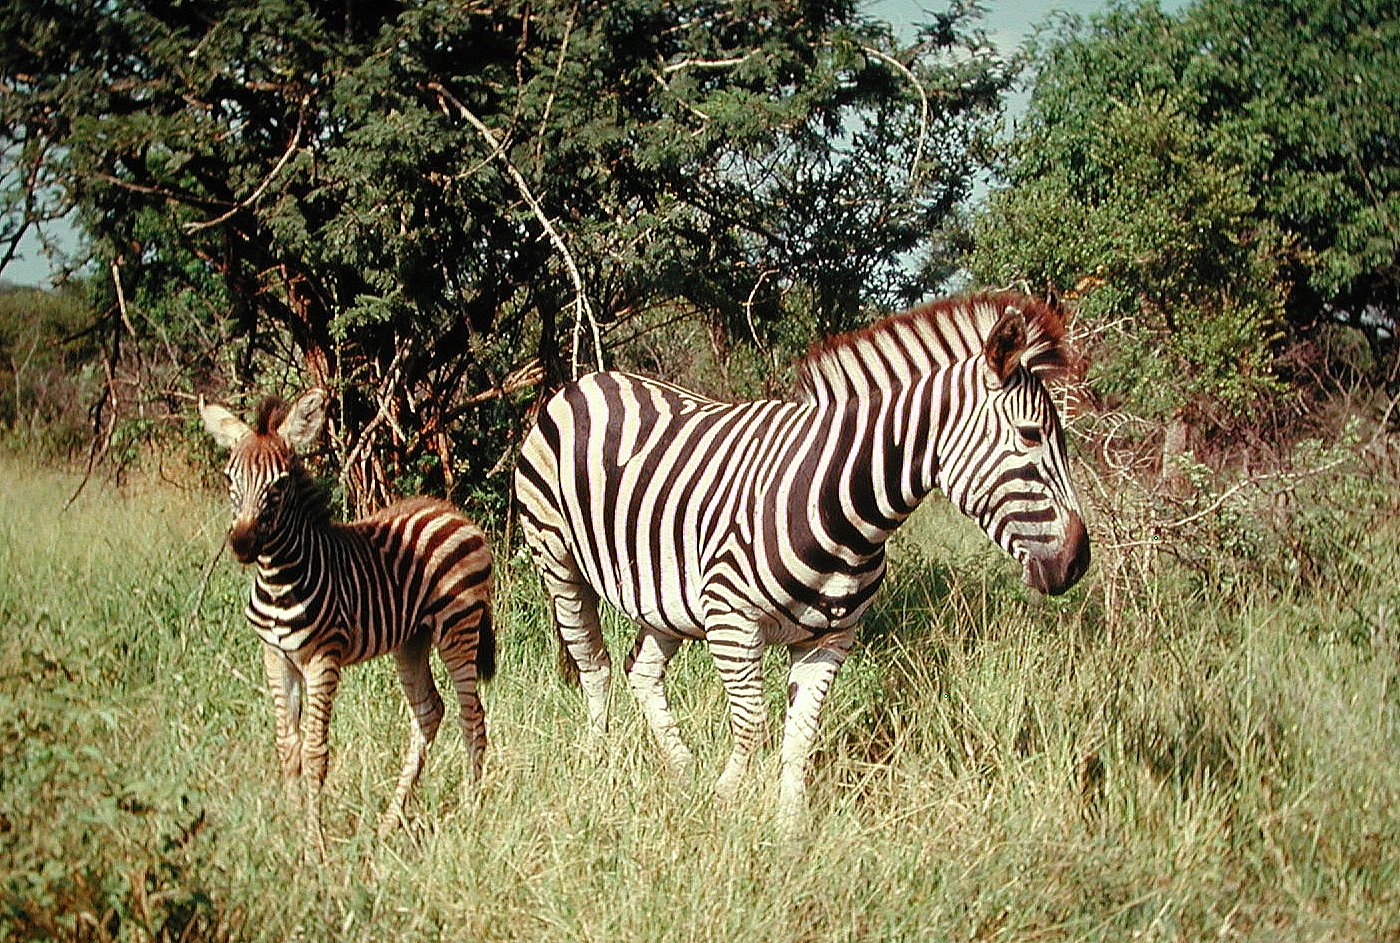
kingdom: Animalia
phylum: Chordata
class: Mammalia
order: Perissodactyla
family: Equidae
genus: Equus
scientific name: Equus quagga
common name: Plains zebra
